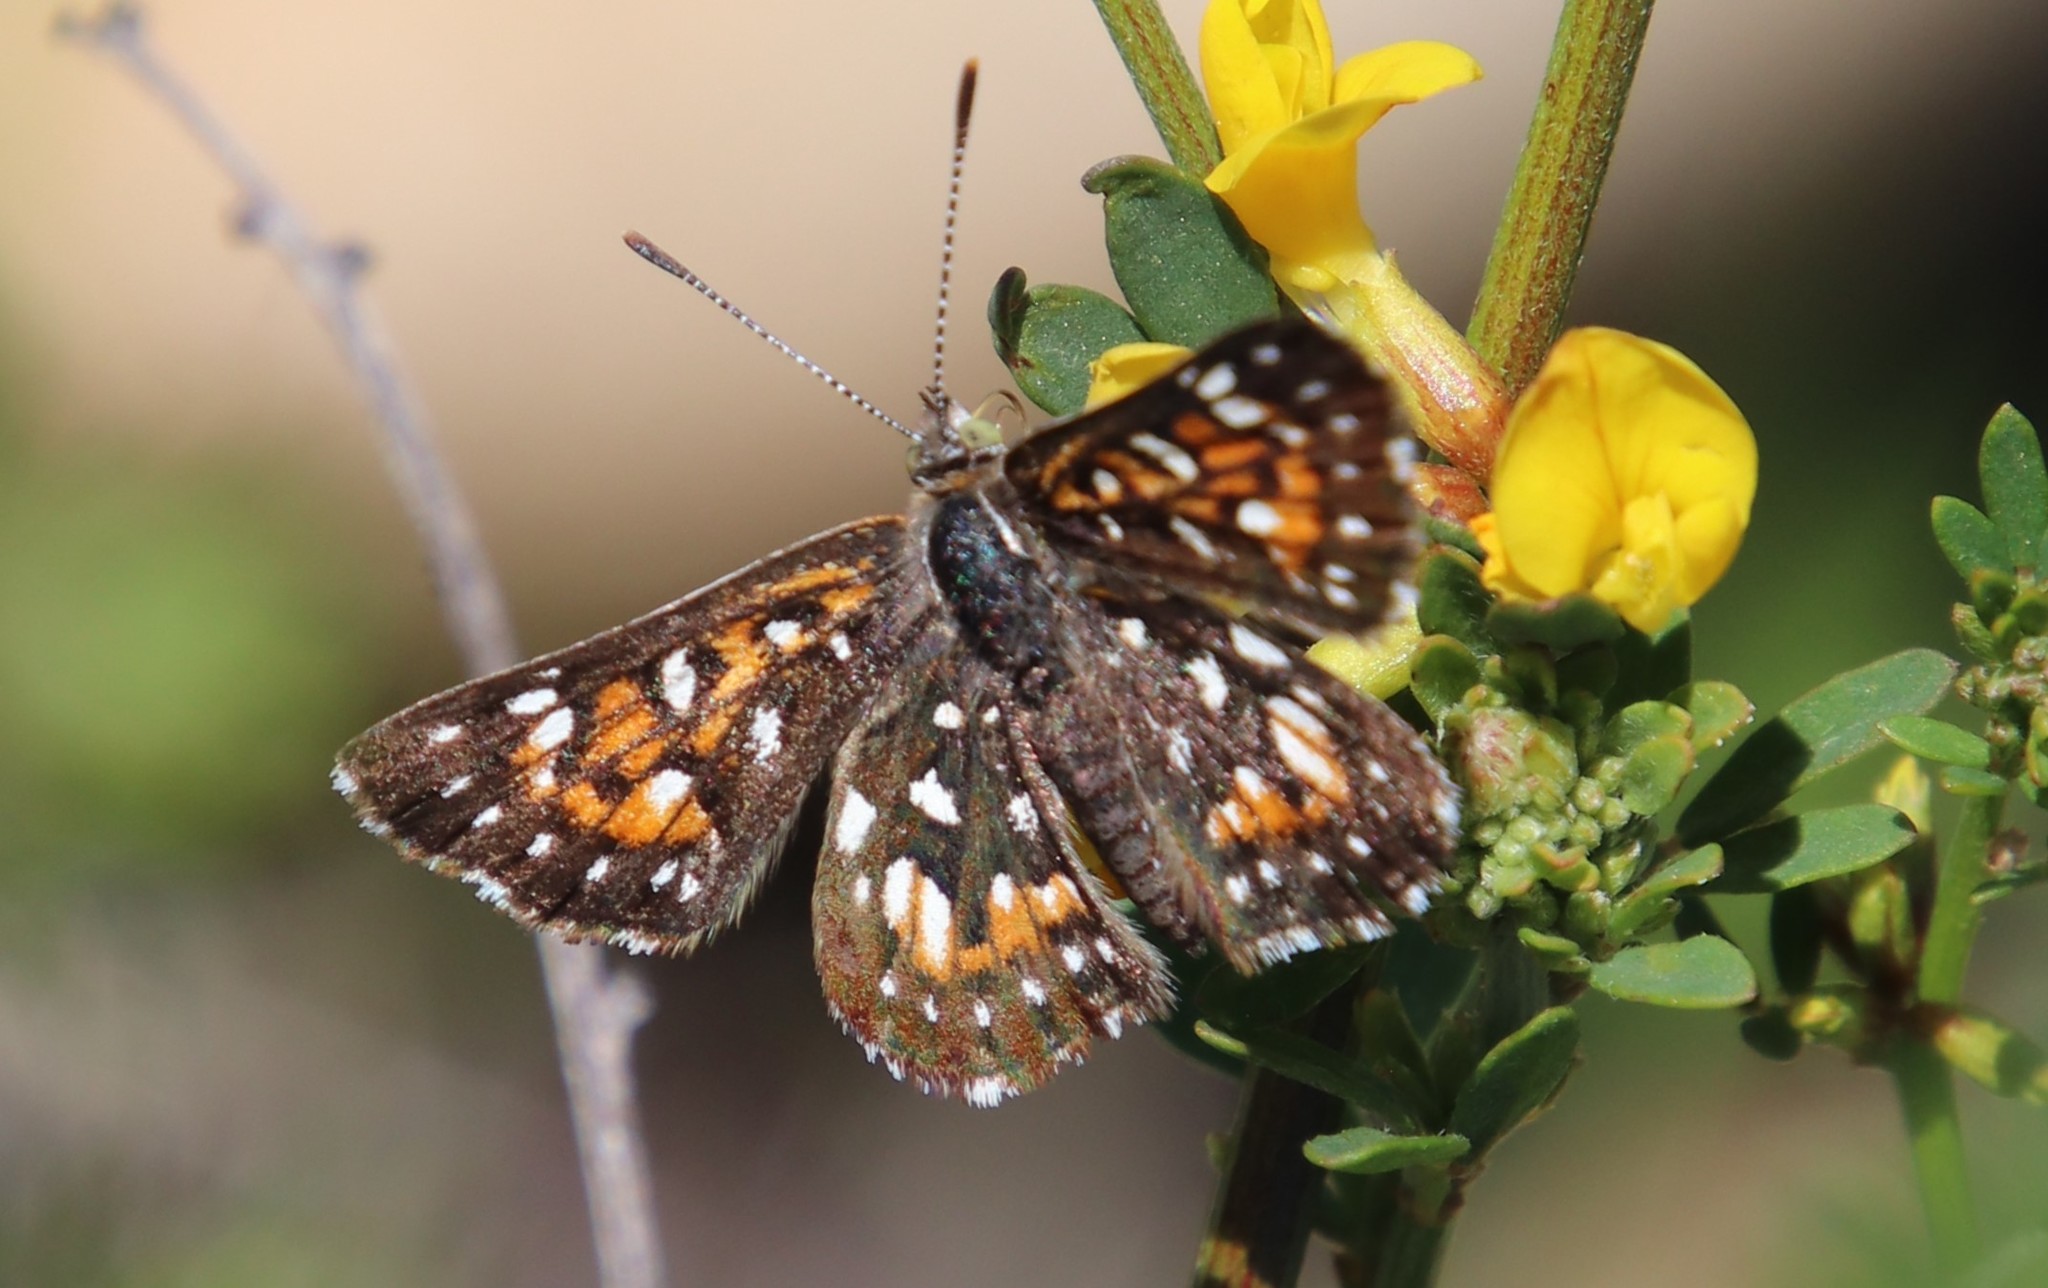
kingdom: Animalia
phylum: Arthropoda
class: Insecta
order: Lepidoptera
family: Riodinidae
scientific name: Riodinidae
